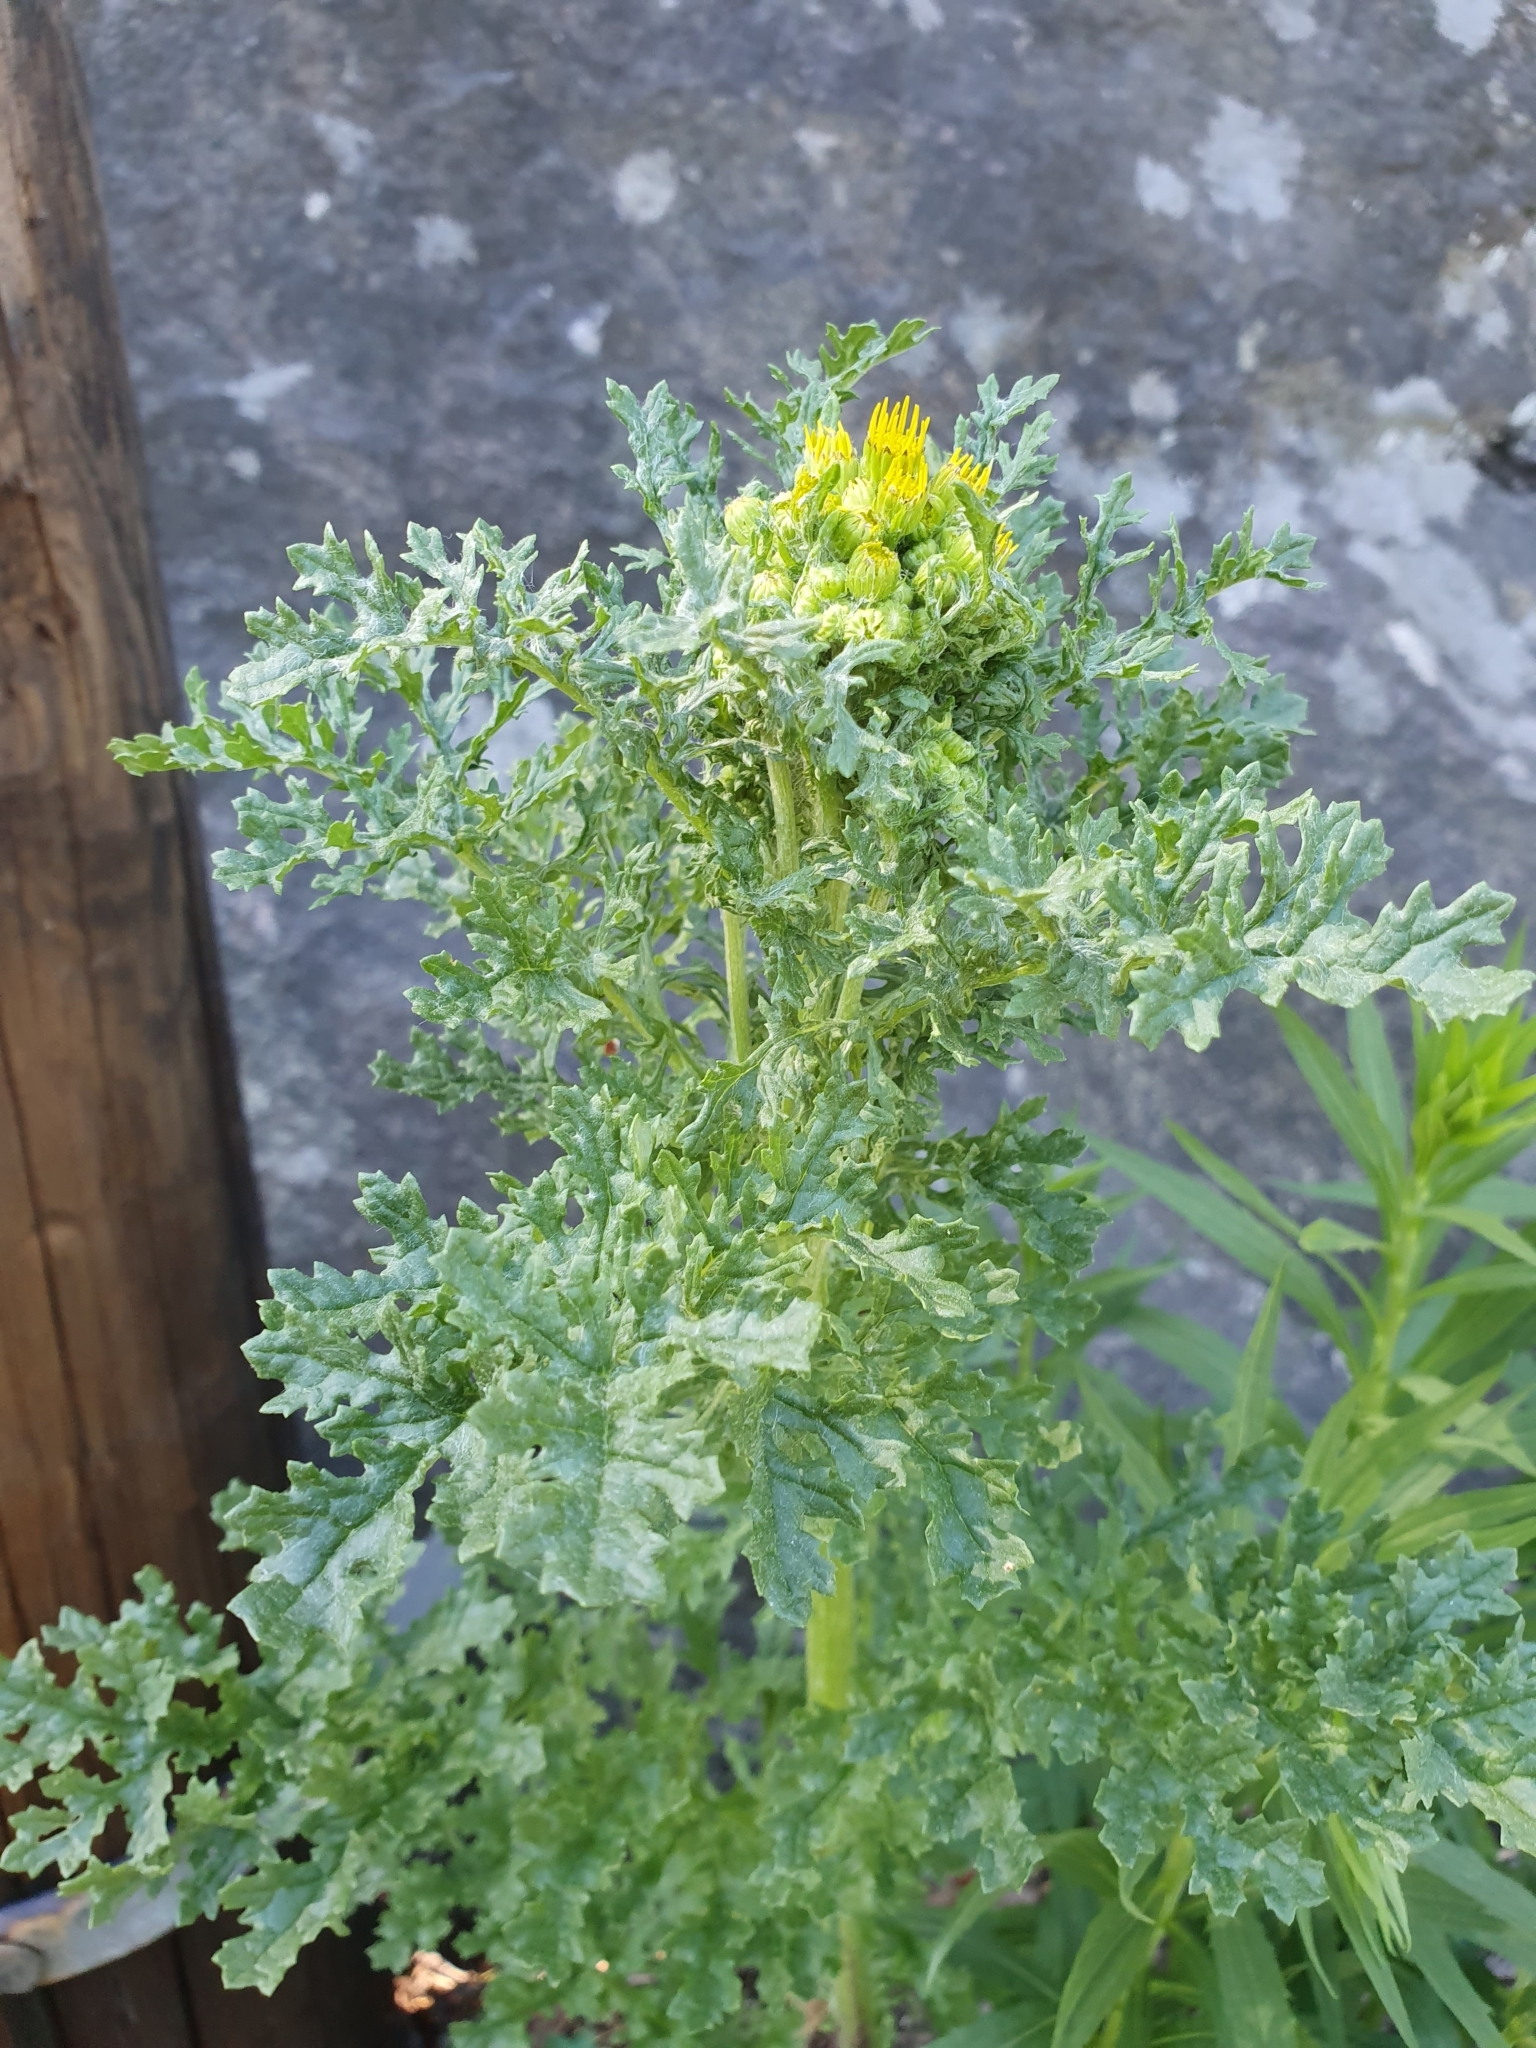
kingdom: Plantae
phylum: Tracheophyta
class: Magnoliopsida
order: Asterales
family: Asteraceae
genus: Jacobaea
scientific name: Jacobaea vulgaris
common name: Stinking willie
